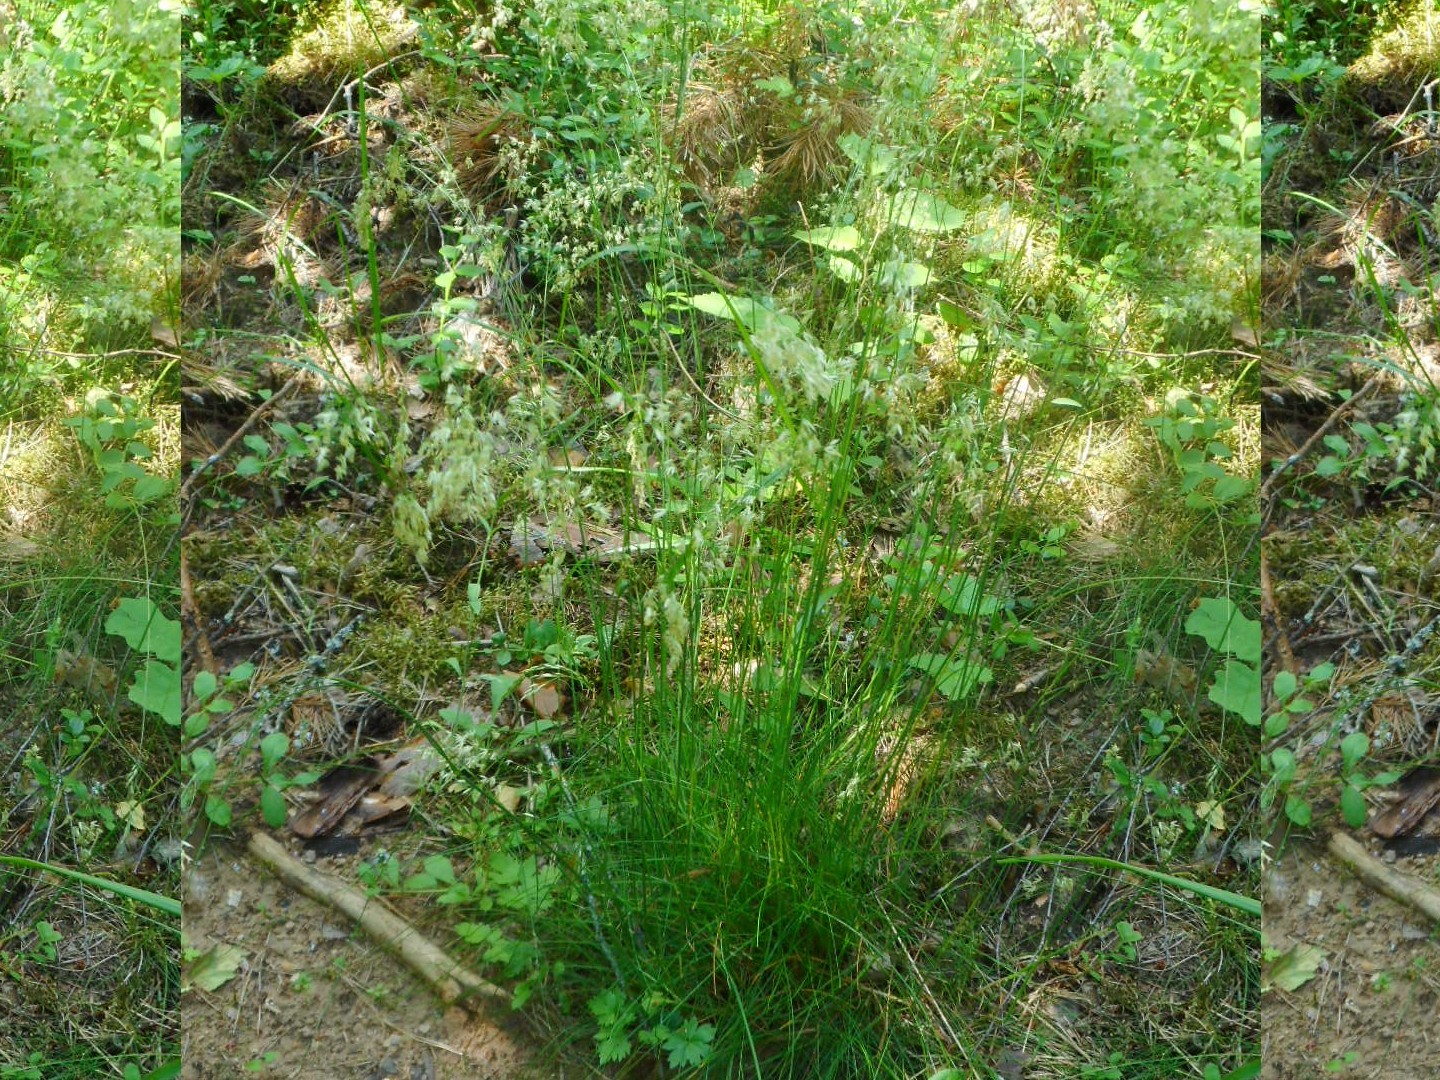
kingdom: Plantae
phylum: Tracheophyta
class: Liliopsida
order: Poales
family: Poaceae
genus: Avenella
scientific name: Avenella flexuosa
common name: Wavy hairgrass
